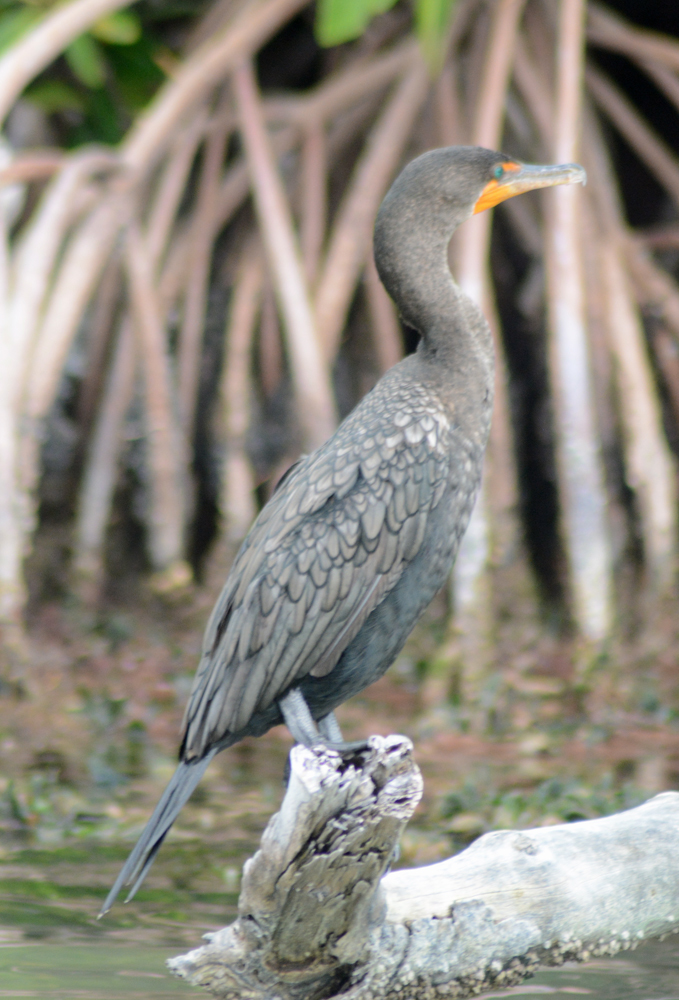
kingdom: Animalia
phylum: Chordata
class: Aves
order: Suliformes
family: Phalacrocoracidae
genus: Phalacrocorax
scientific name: Phalacrocorax auritus
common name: Double-crested cormorant
